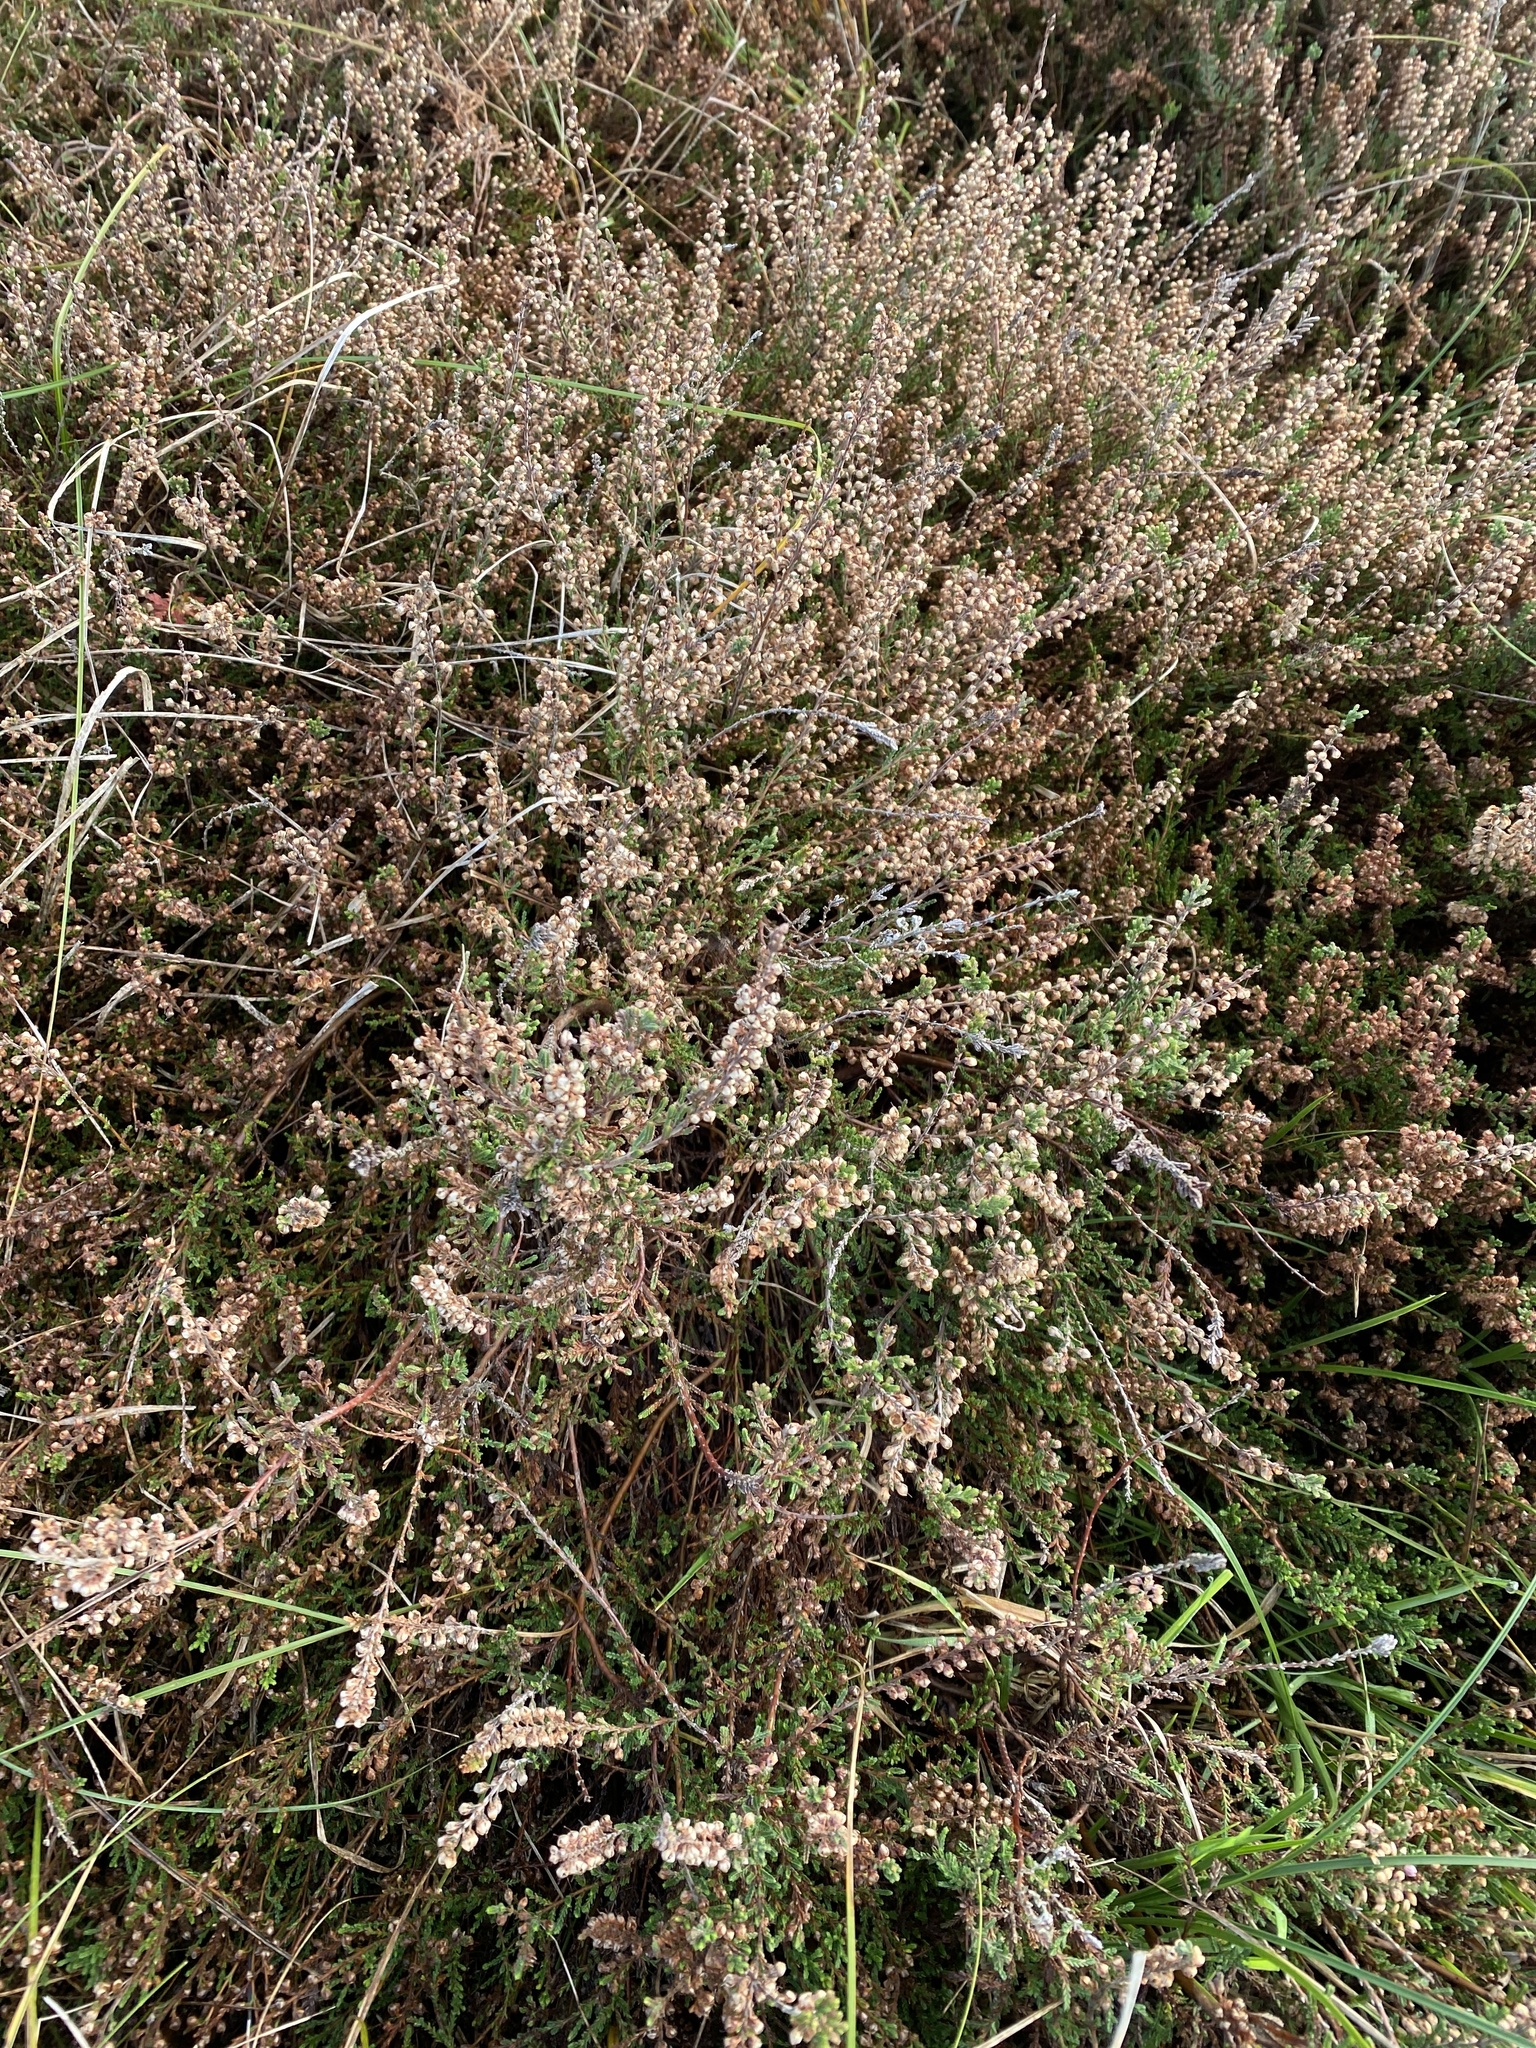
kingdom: Plantae
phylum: Tracheophyta
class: Magnoliopsida
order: Ericales
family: Ericaceae
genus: Calluna
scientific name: Calluna vulgaris
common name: Heather
